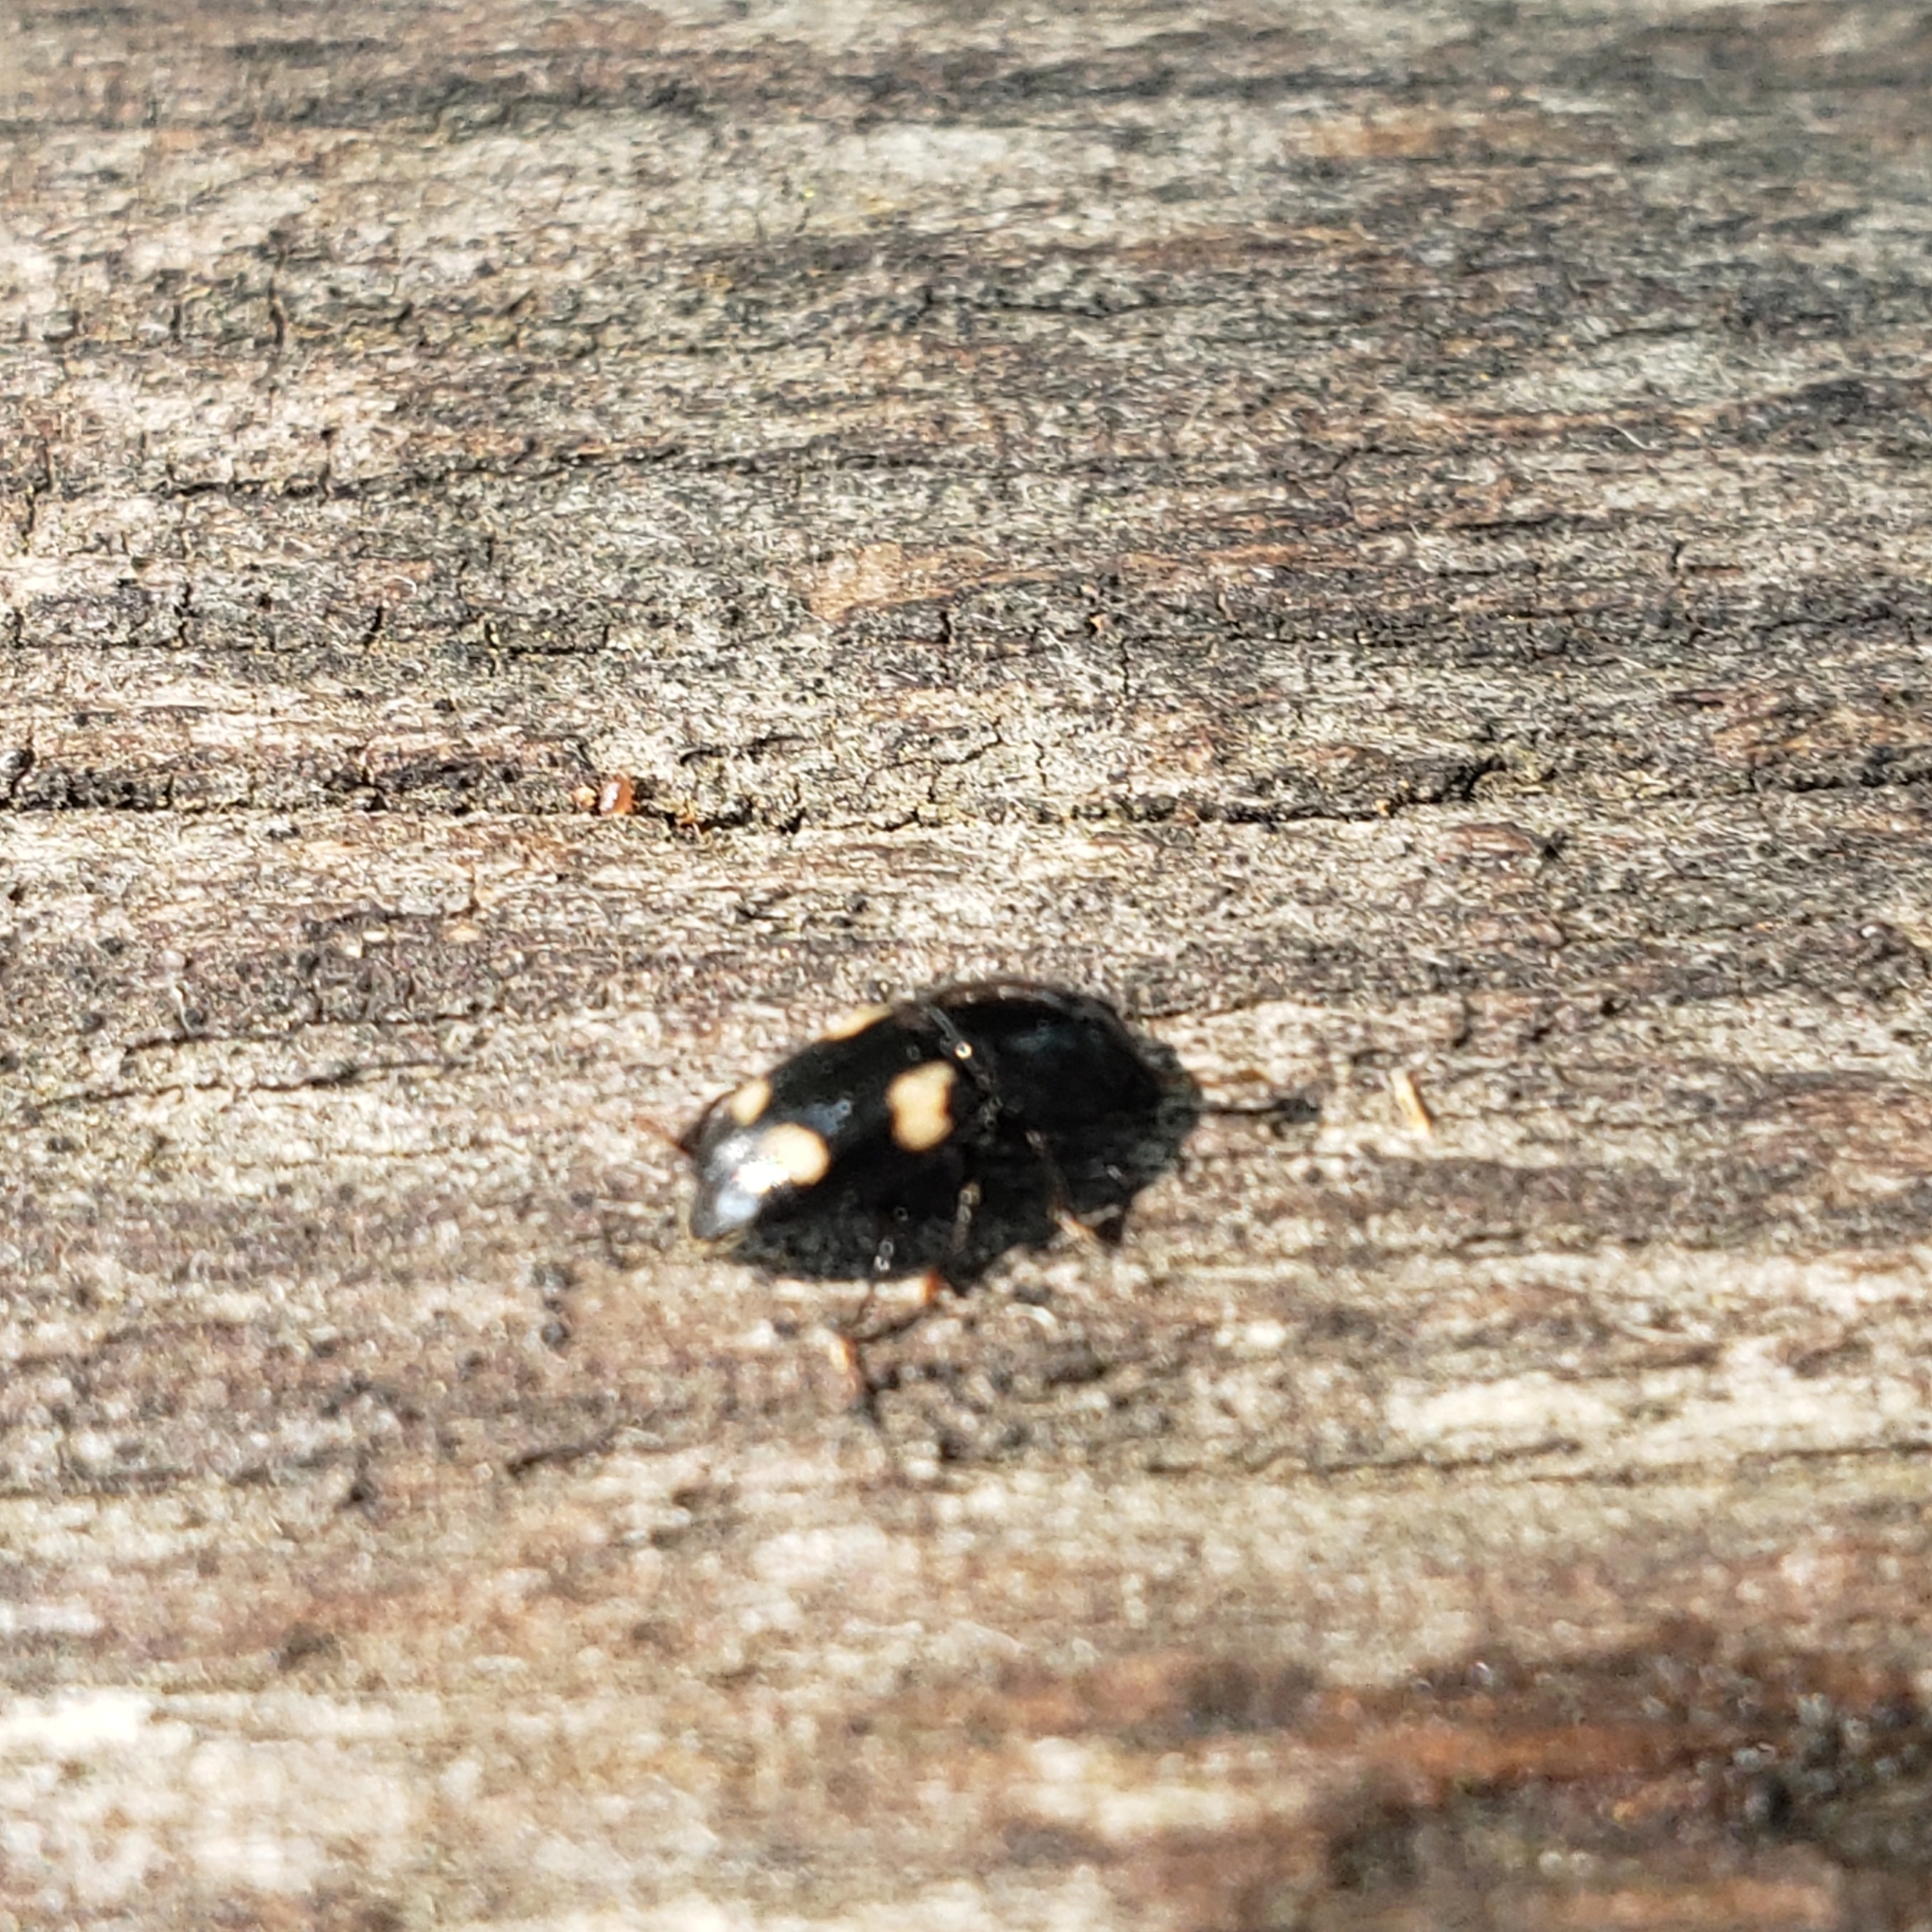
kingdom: Animalia
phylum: Arthropoda
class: Insecta
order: Coleoptera
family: Nitidulidae
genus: Glischrochilus
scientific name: Glischrochilus quadrisignatus
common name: Picnic beetle
